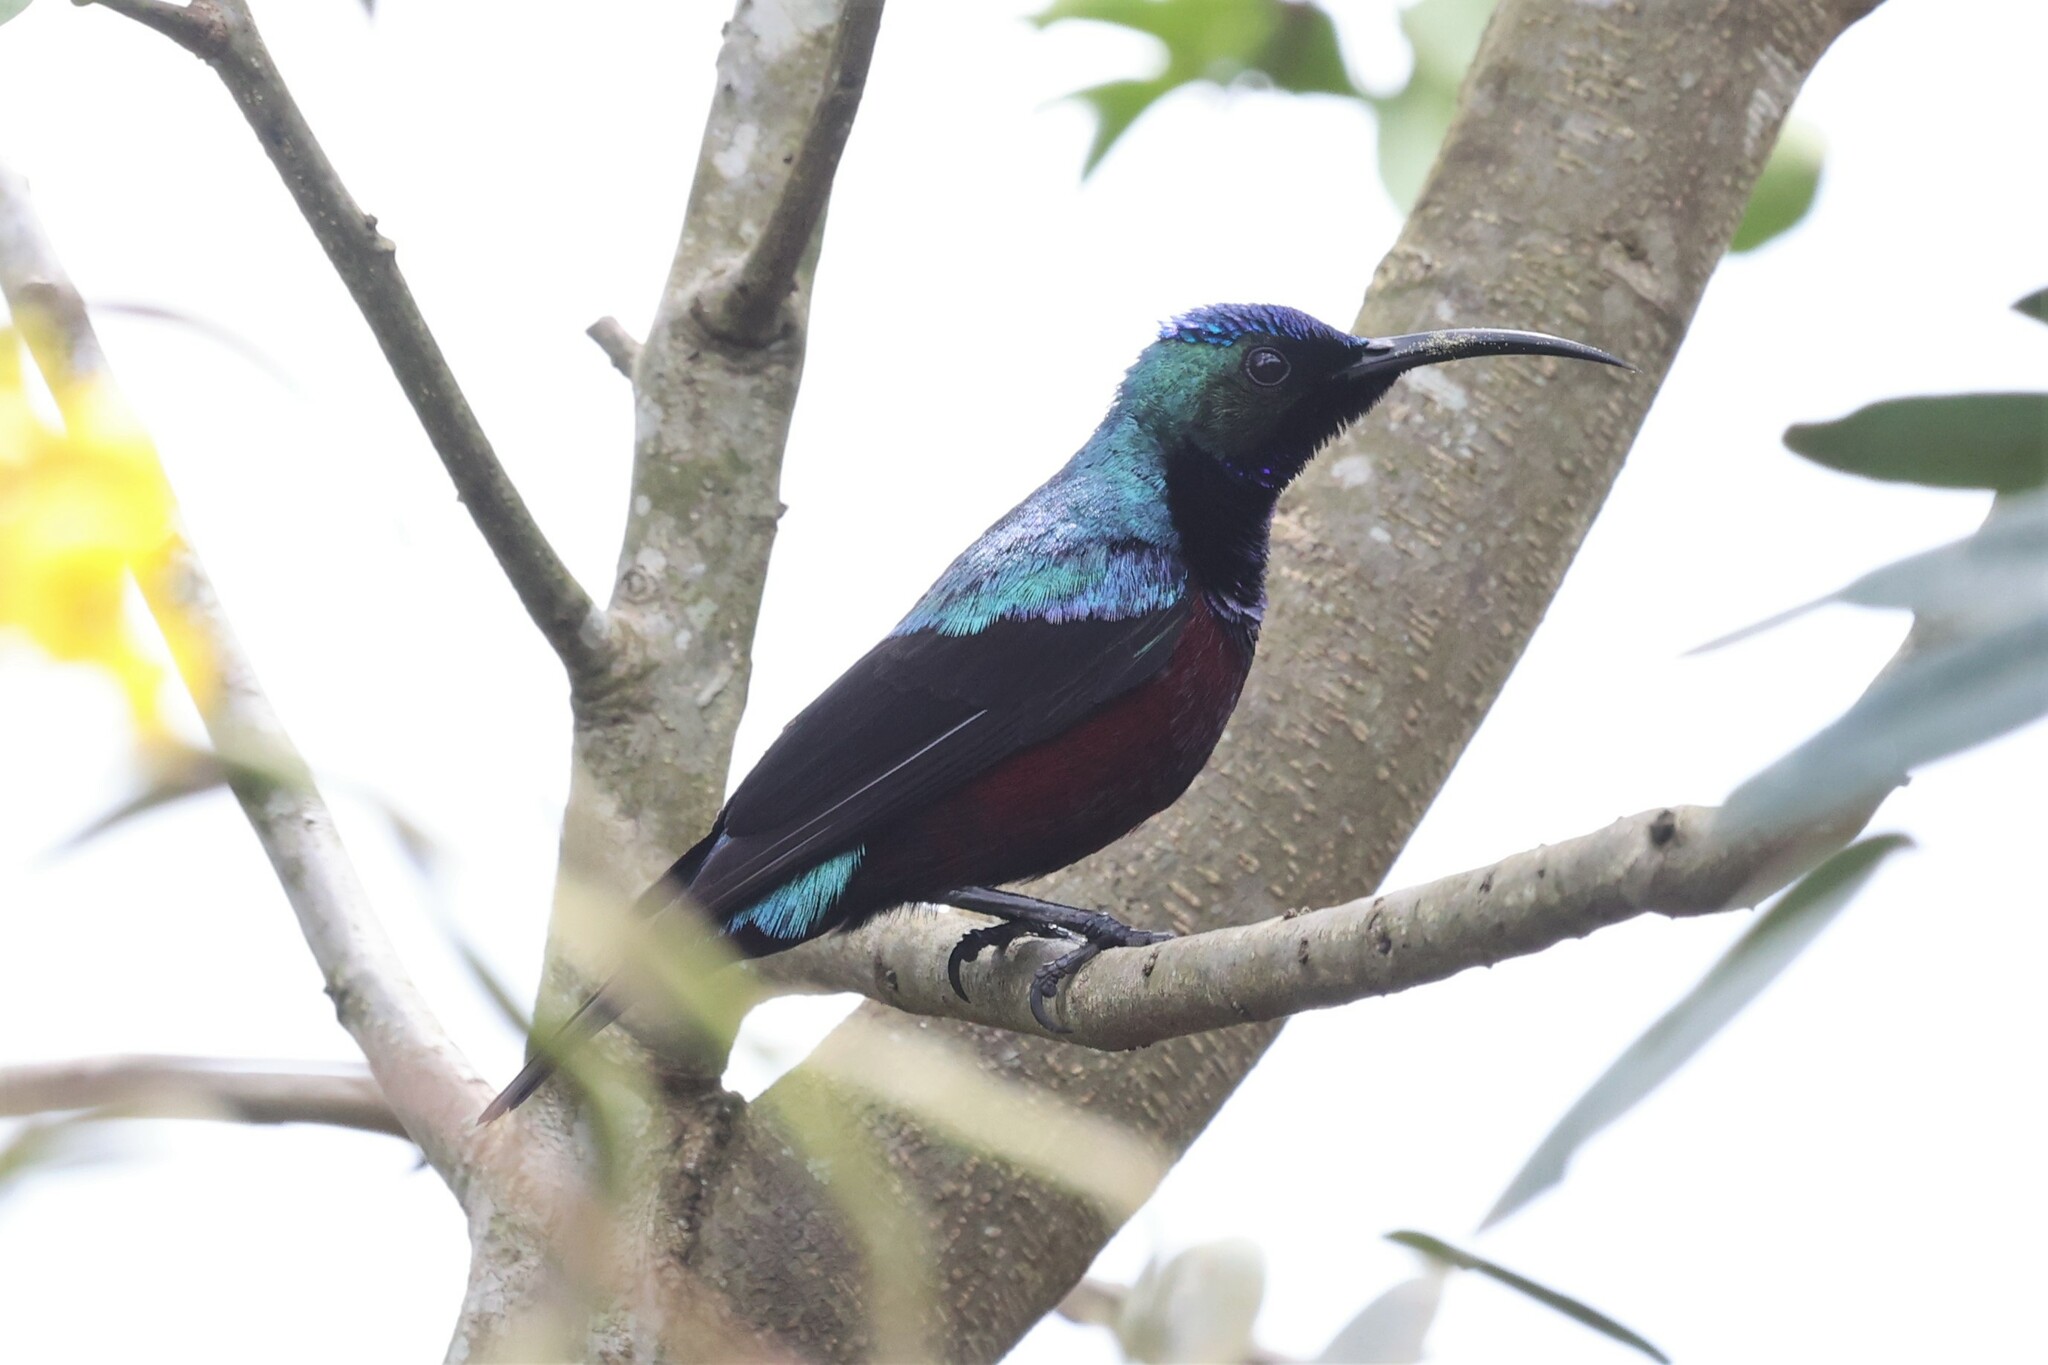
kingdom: Animalia
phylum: Chordata
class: Aves
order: Passeriformes
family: Nectariniidae
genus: Cinnyris
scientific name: Cinnyris superbus
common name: Superb sunbird
